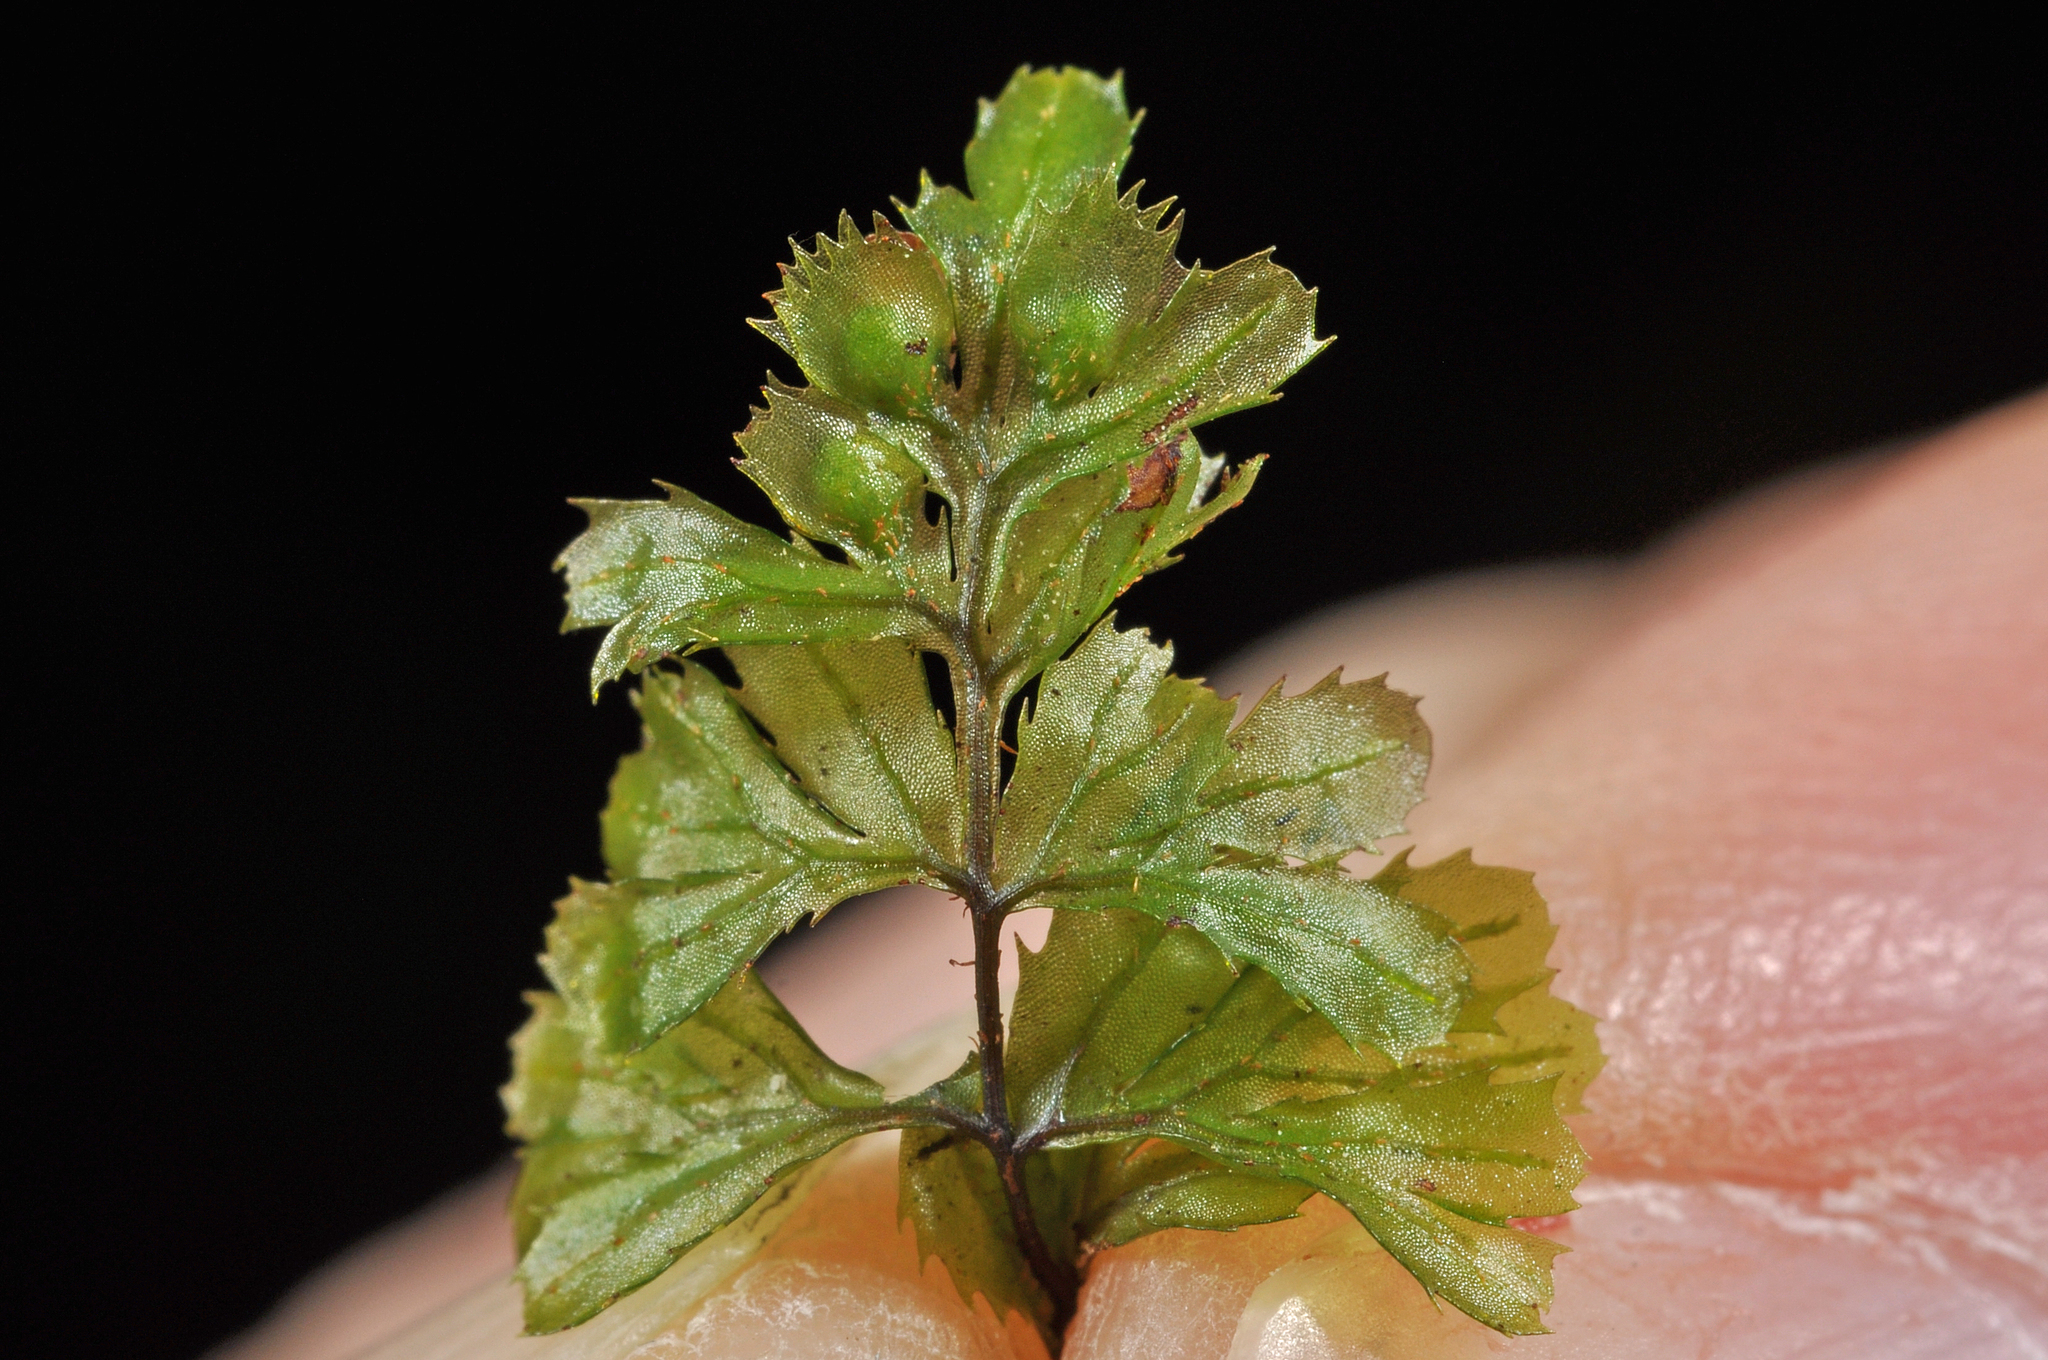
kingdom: Plantae
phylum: Tracheophyta
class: Polypodiopsida
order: Hymenophyllales
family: Hymenophyllaceae
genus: Hymenophyllum
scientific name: Hymenophyllum revolutum
